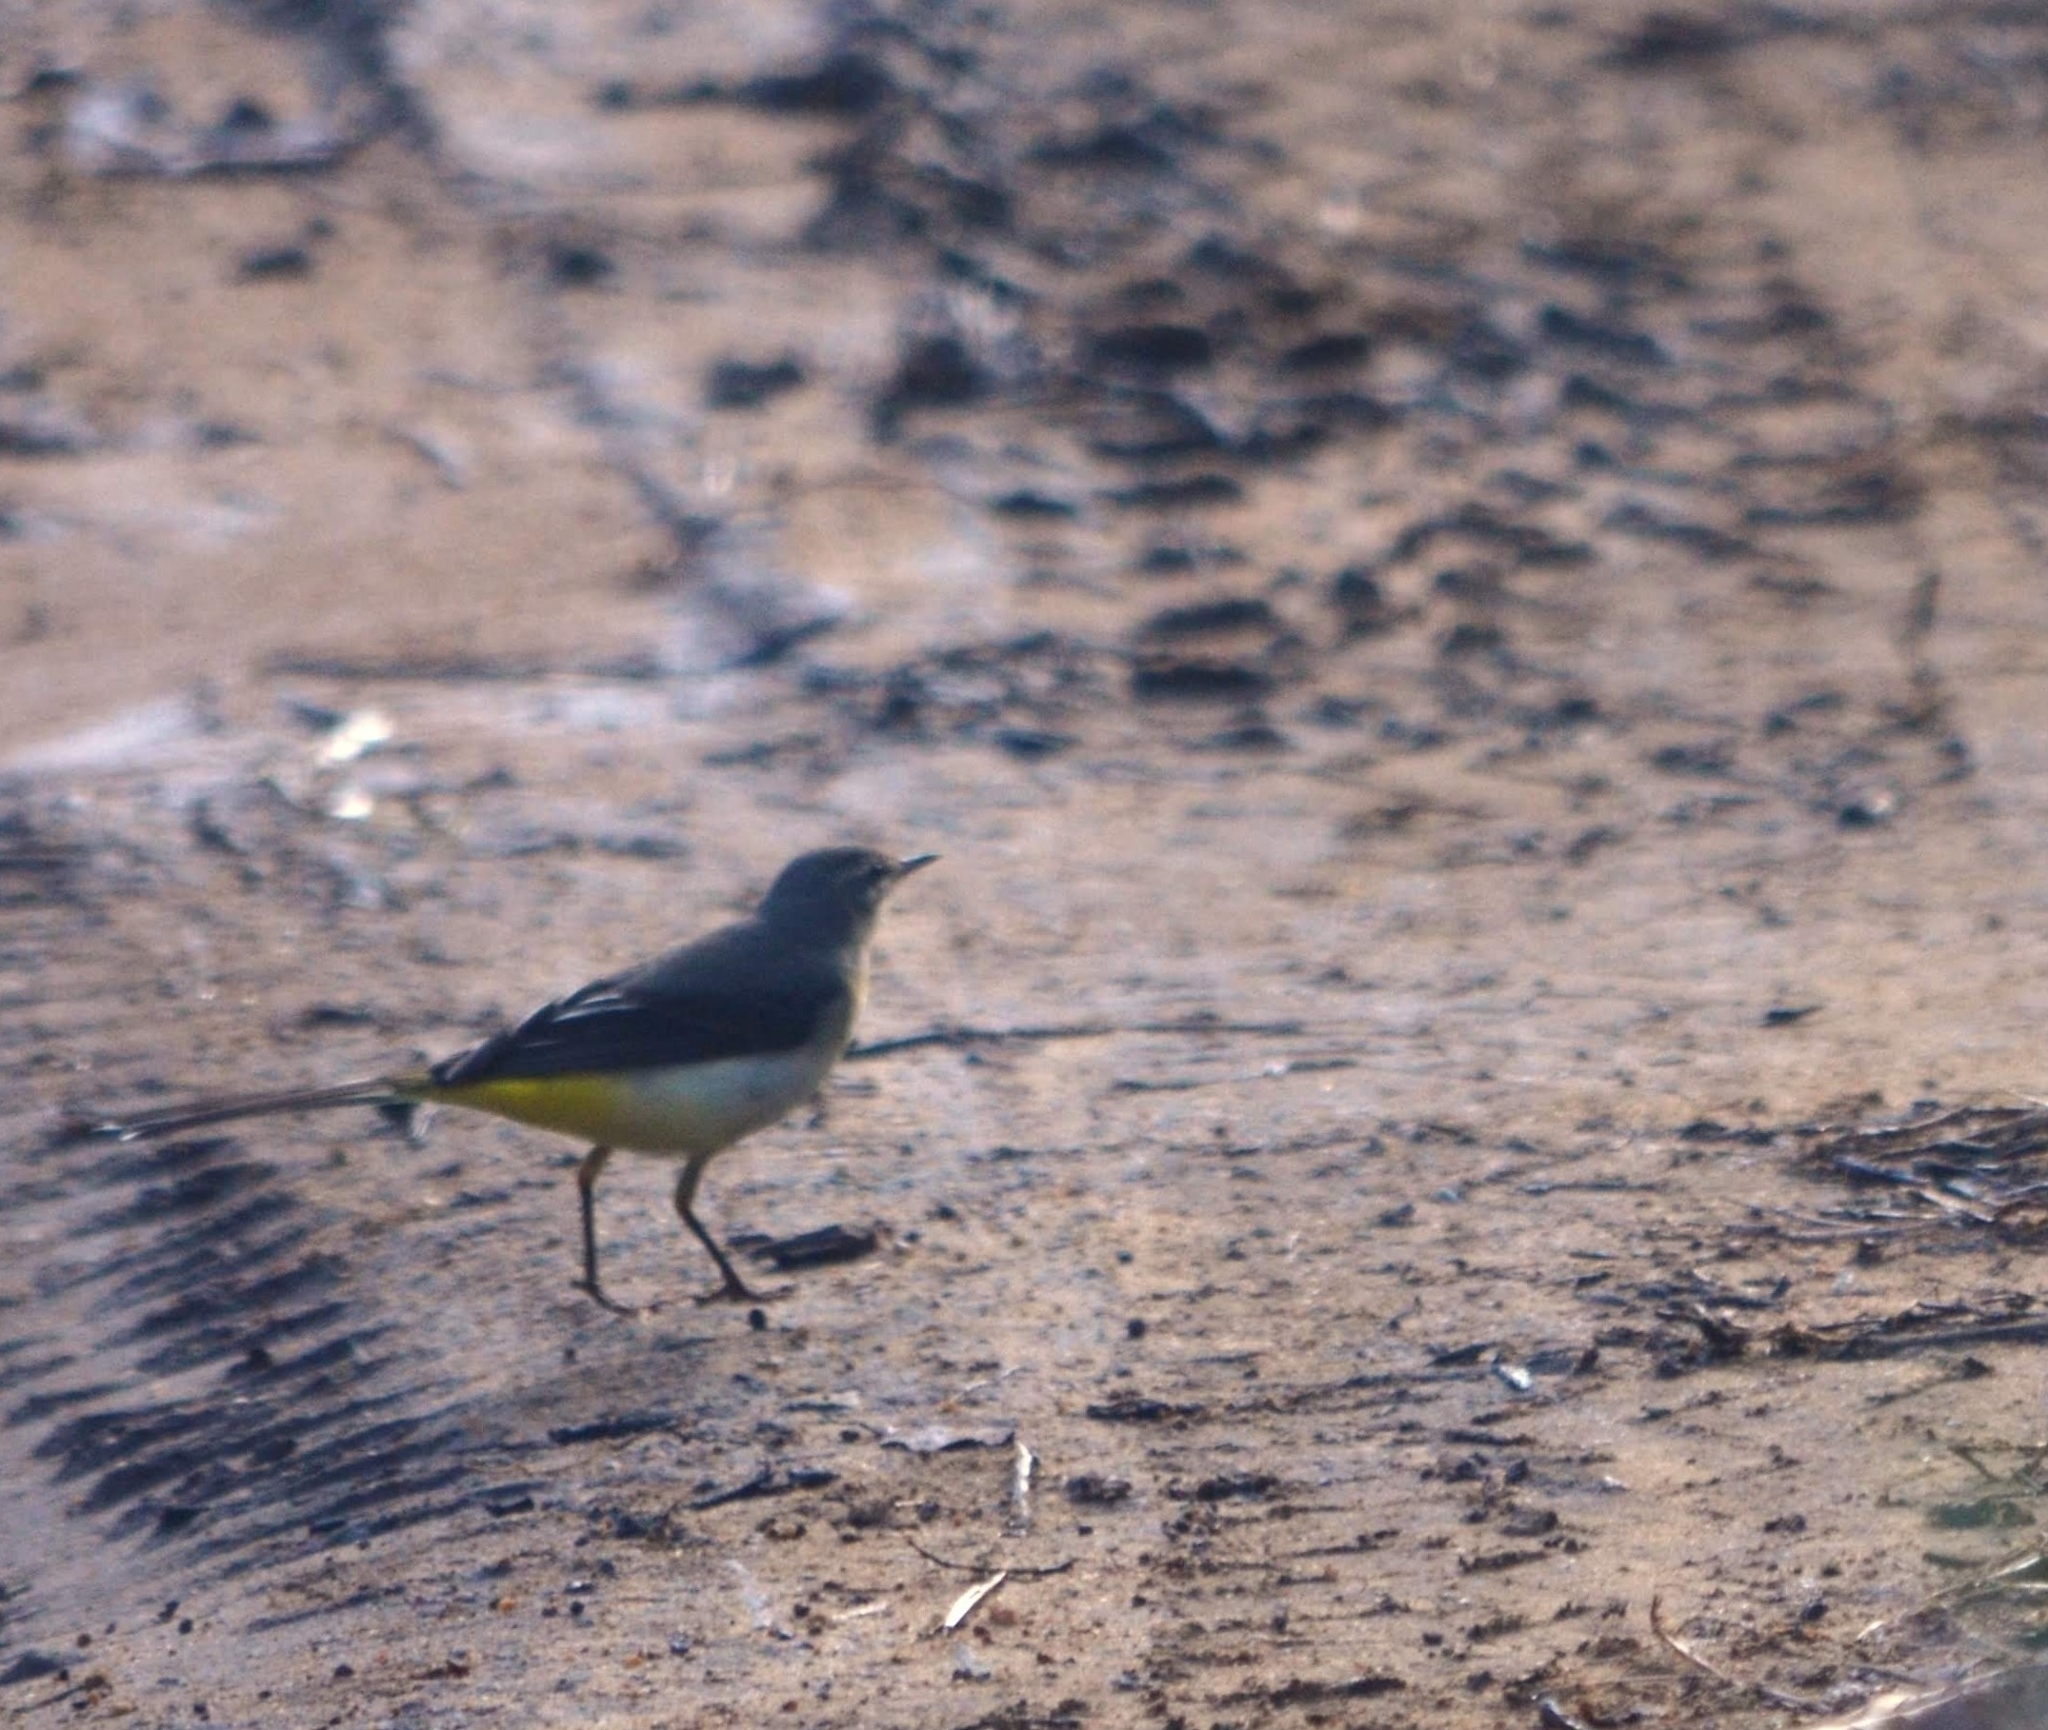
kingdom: Animalia
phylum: Chordata
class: Aves
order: Passeriformes
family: Motacillidae
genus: Motacilla
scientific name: Motacilla cinerea
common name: Grey wagtail
